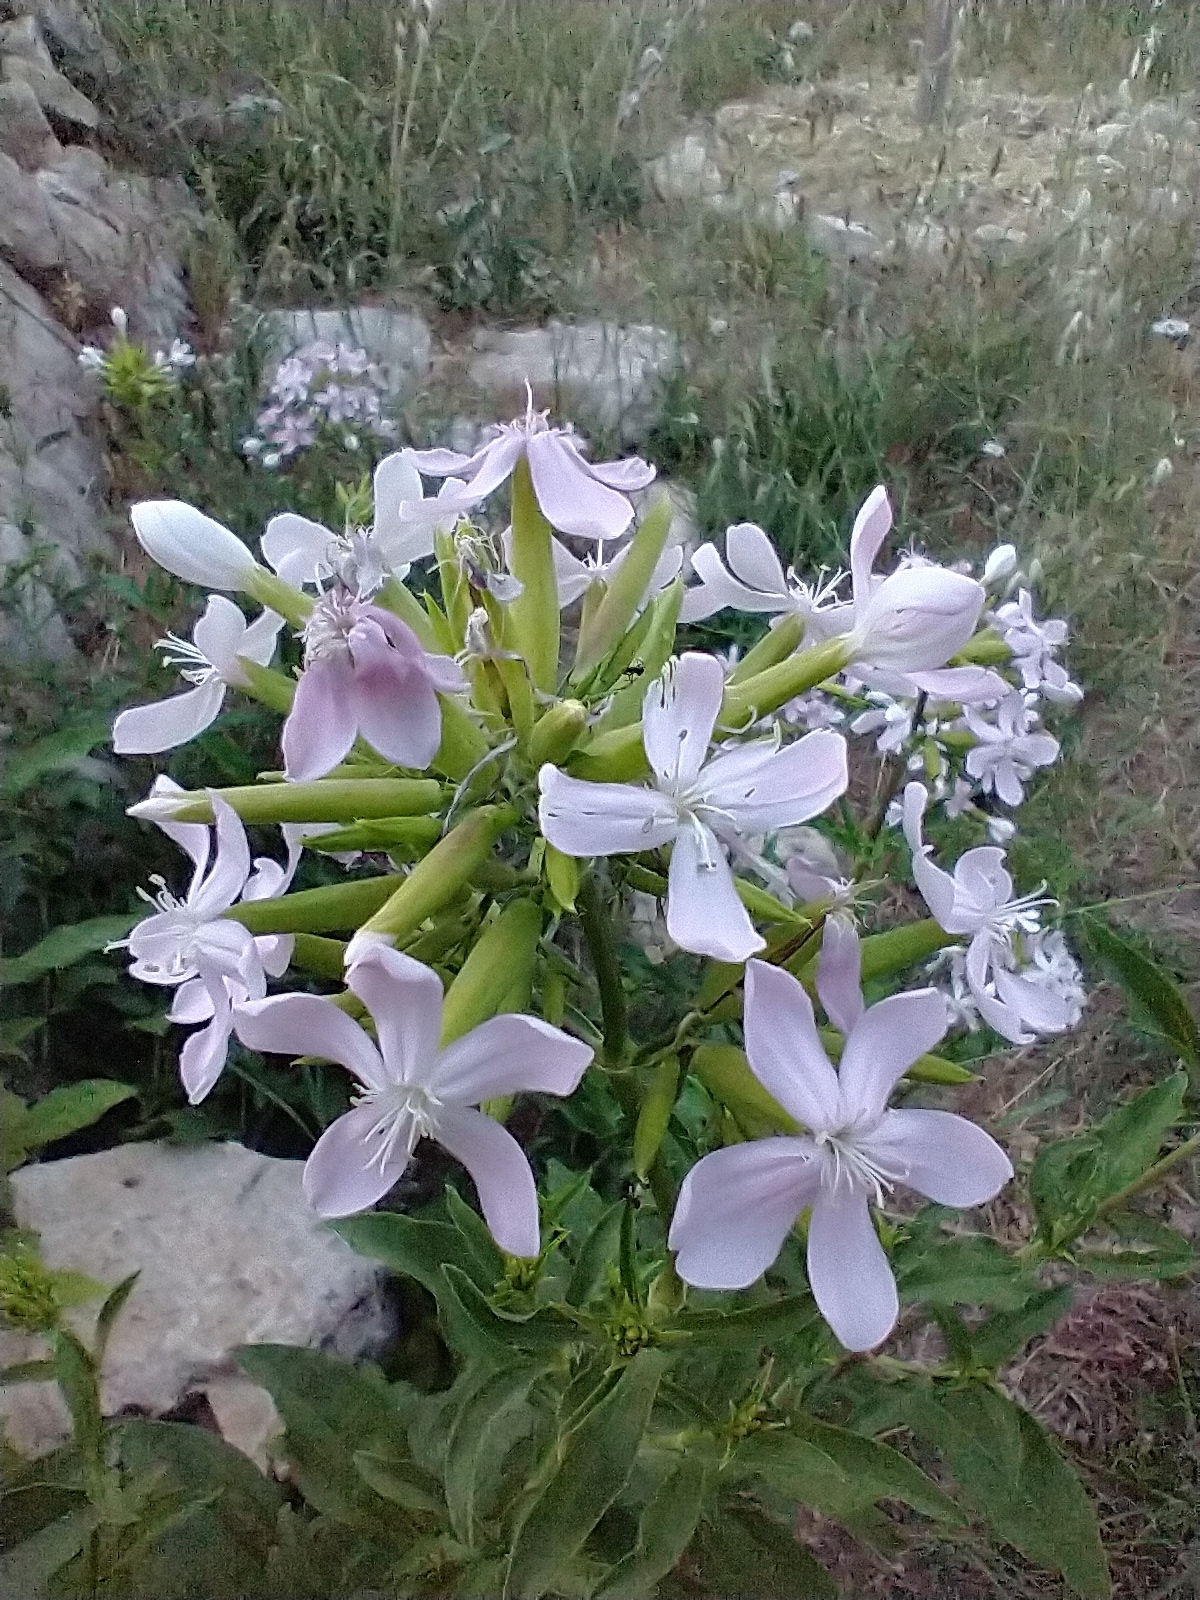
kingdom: Plantae
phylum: Tracheophyta
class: Magnoliopsida
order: Caryophyllales
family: Caryophyllaceae
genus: Saponaria
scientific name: Saponaria officinalis
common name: Soapwort
